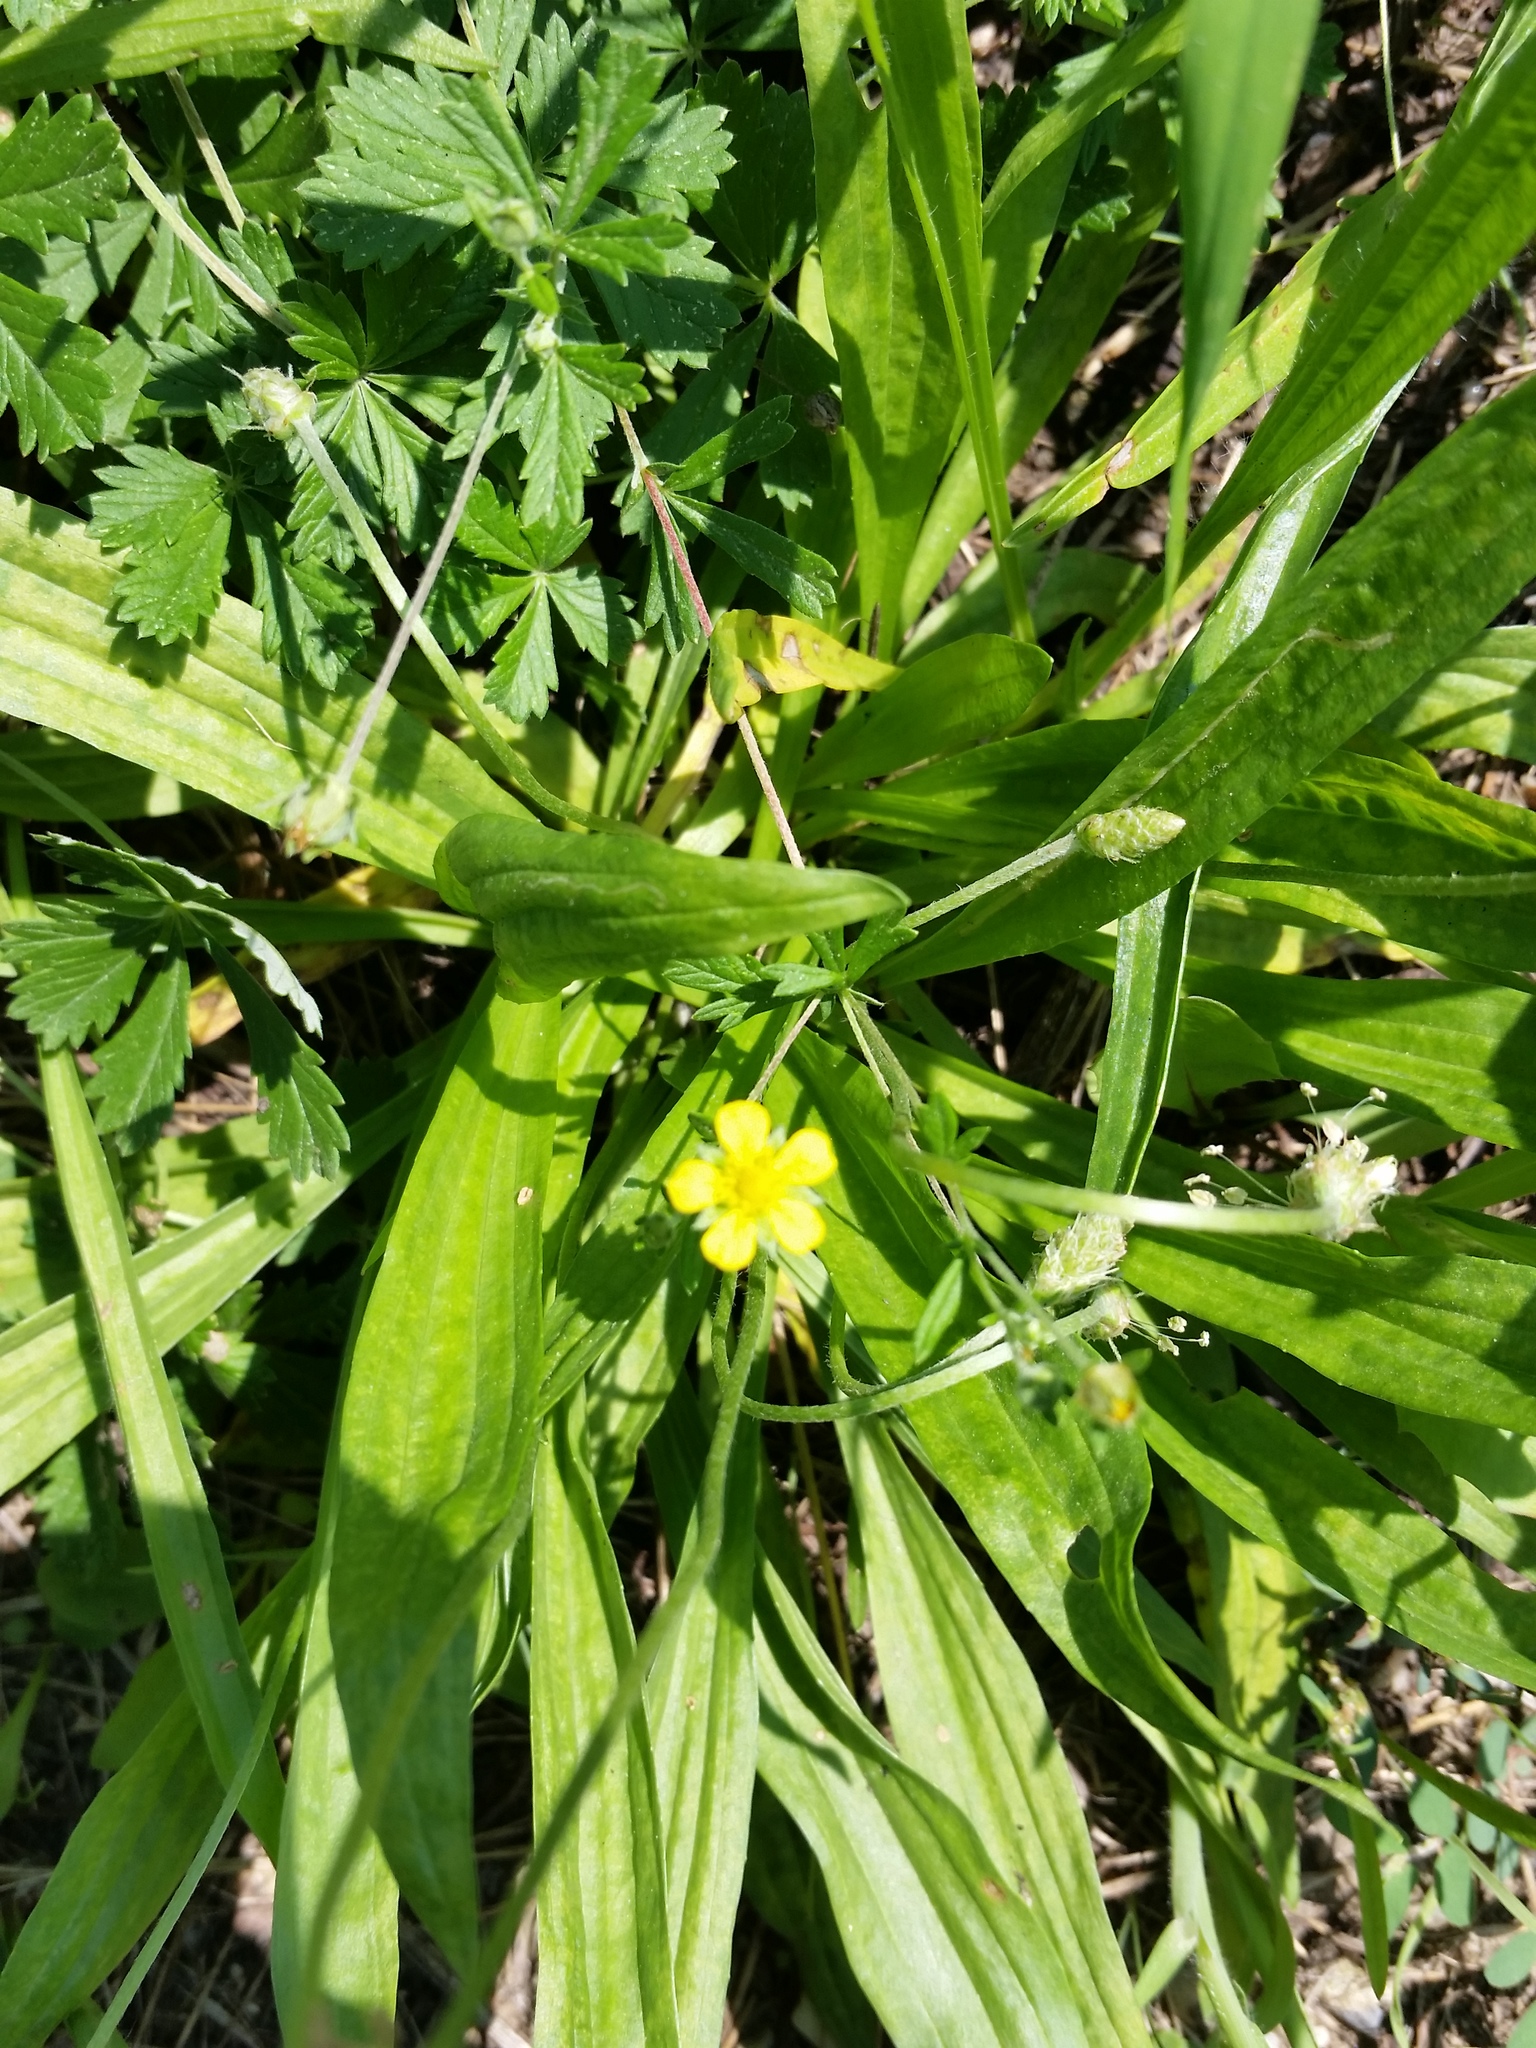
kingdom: Plantae
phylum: Tracheophyta
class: Magnoliopsida
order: Rosales
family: Rosaceae
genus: Potentilla
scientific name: Potentilla argentea
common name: Hoary cinquefoil
